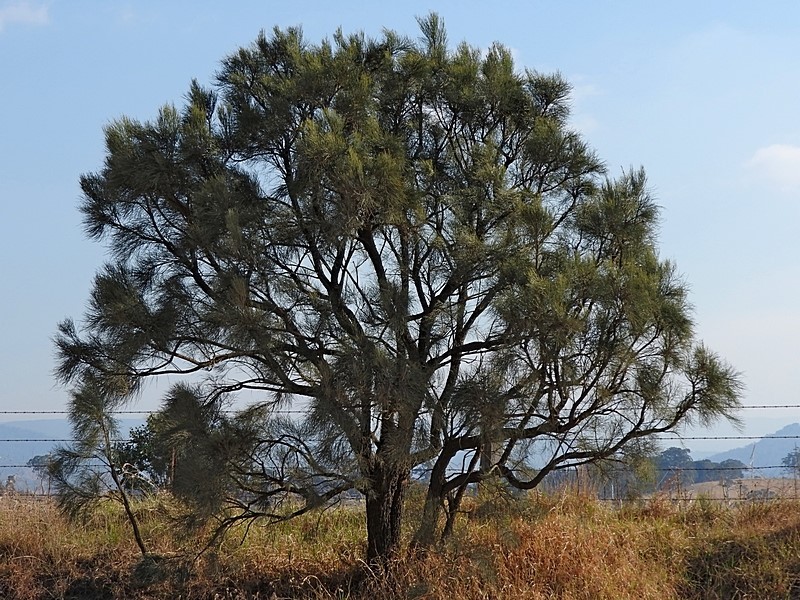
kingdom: Plantae
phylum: Tracheophyta
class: Magnoliopsida
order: Fabales
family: Fabaceae
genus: Jacksonia
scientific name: Jacksonia scoparia
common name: Dogwood
